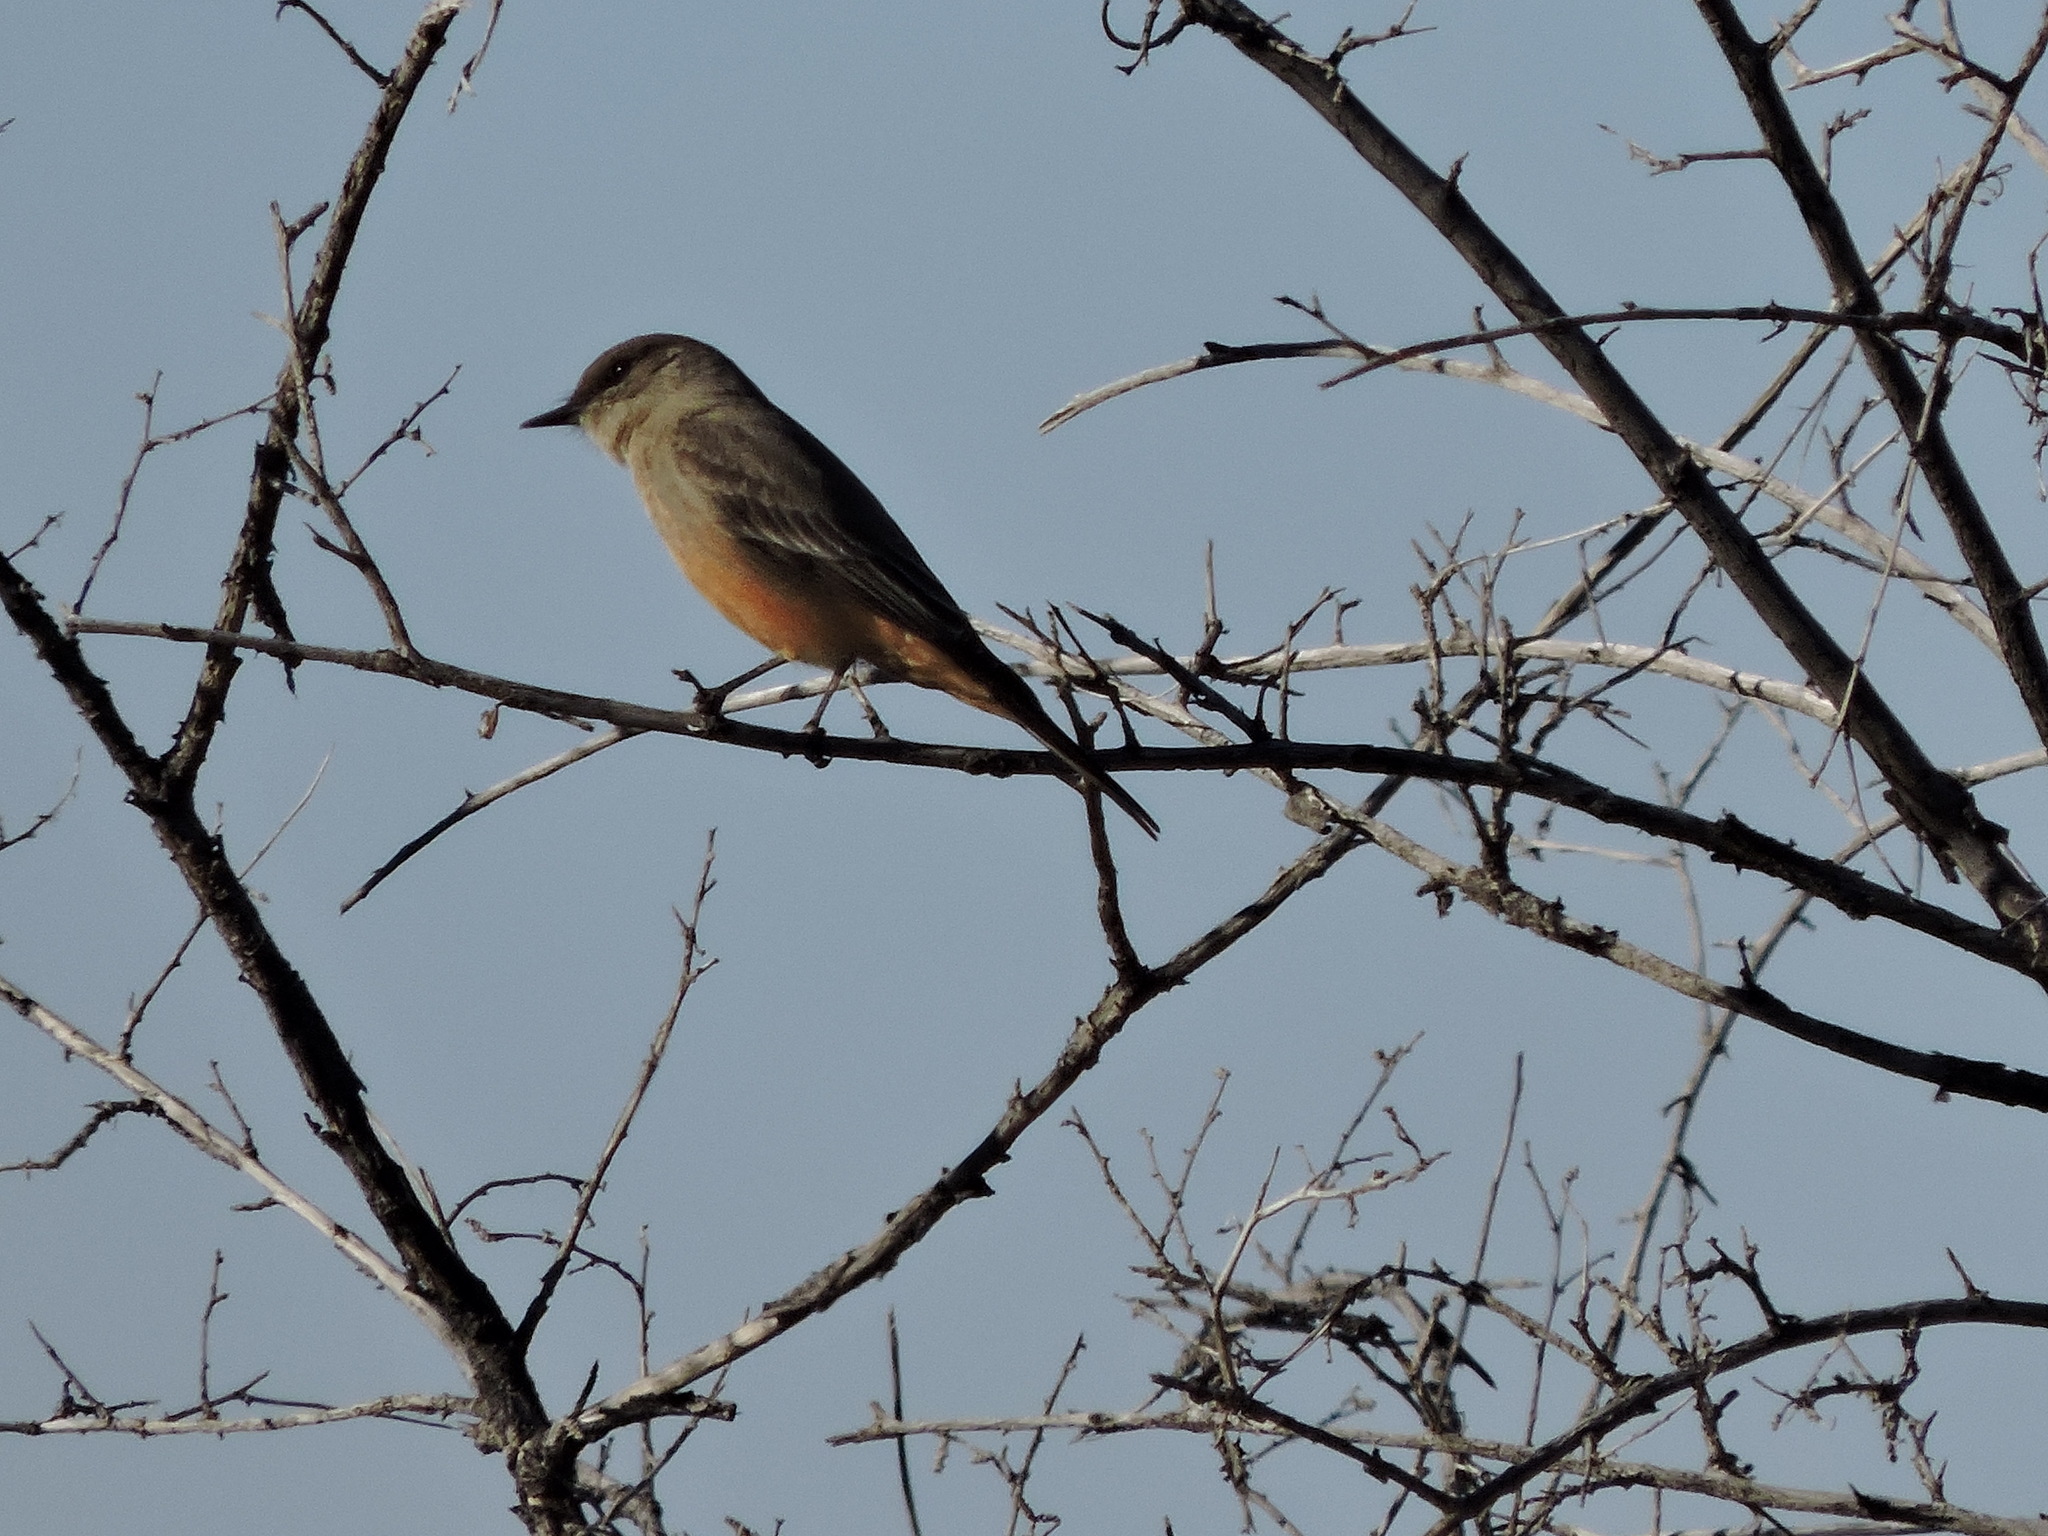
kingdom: Animalia
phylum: Chordata
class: Aves
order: Passeriformes
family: Tyrannidae
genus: Sayornis
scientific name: Sayornis saya
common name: Say's phoebe
